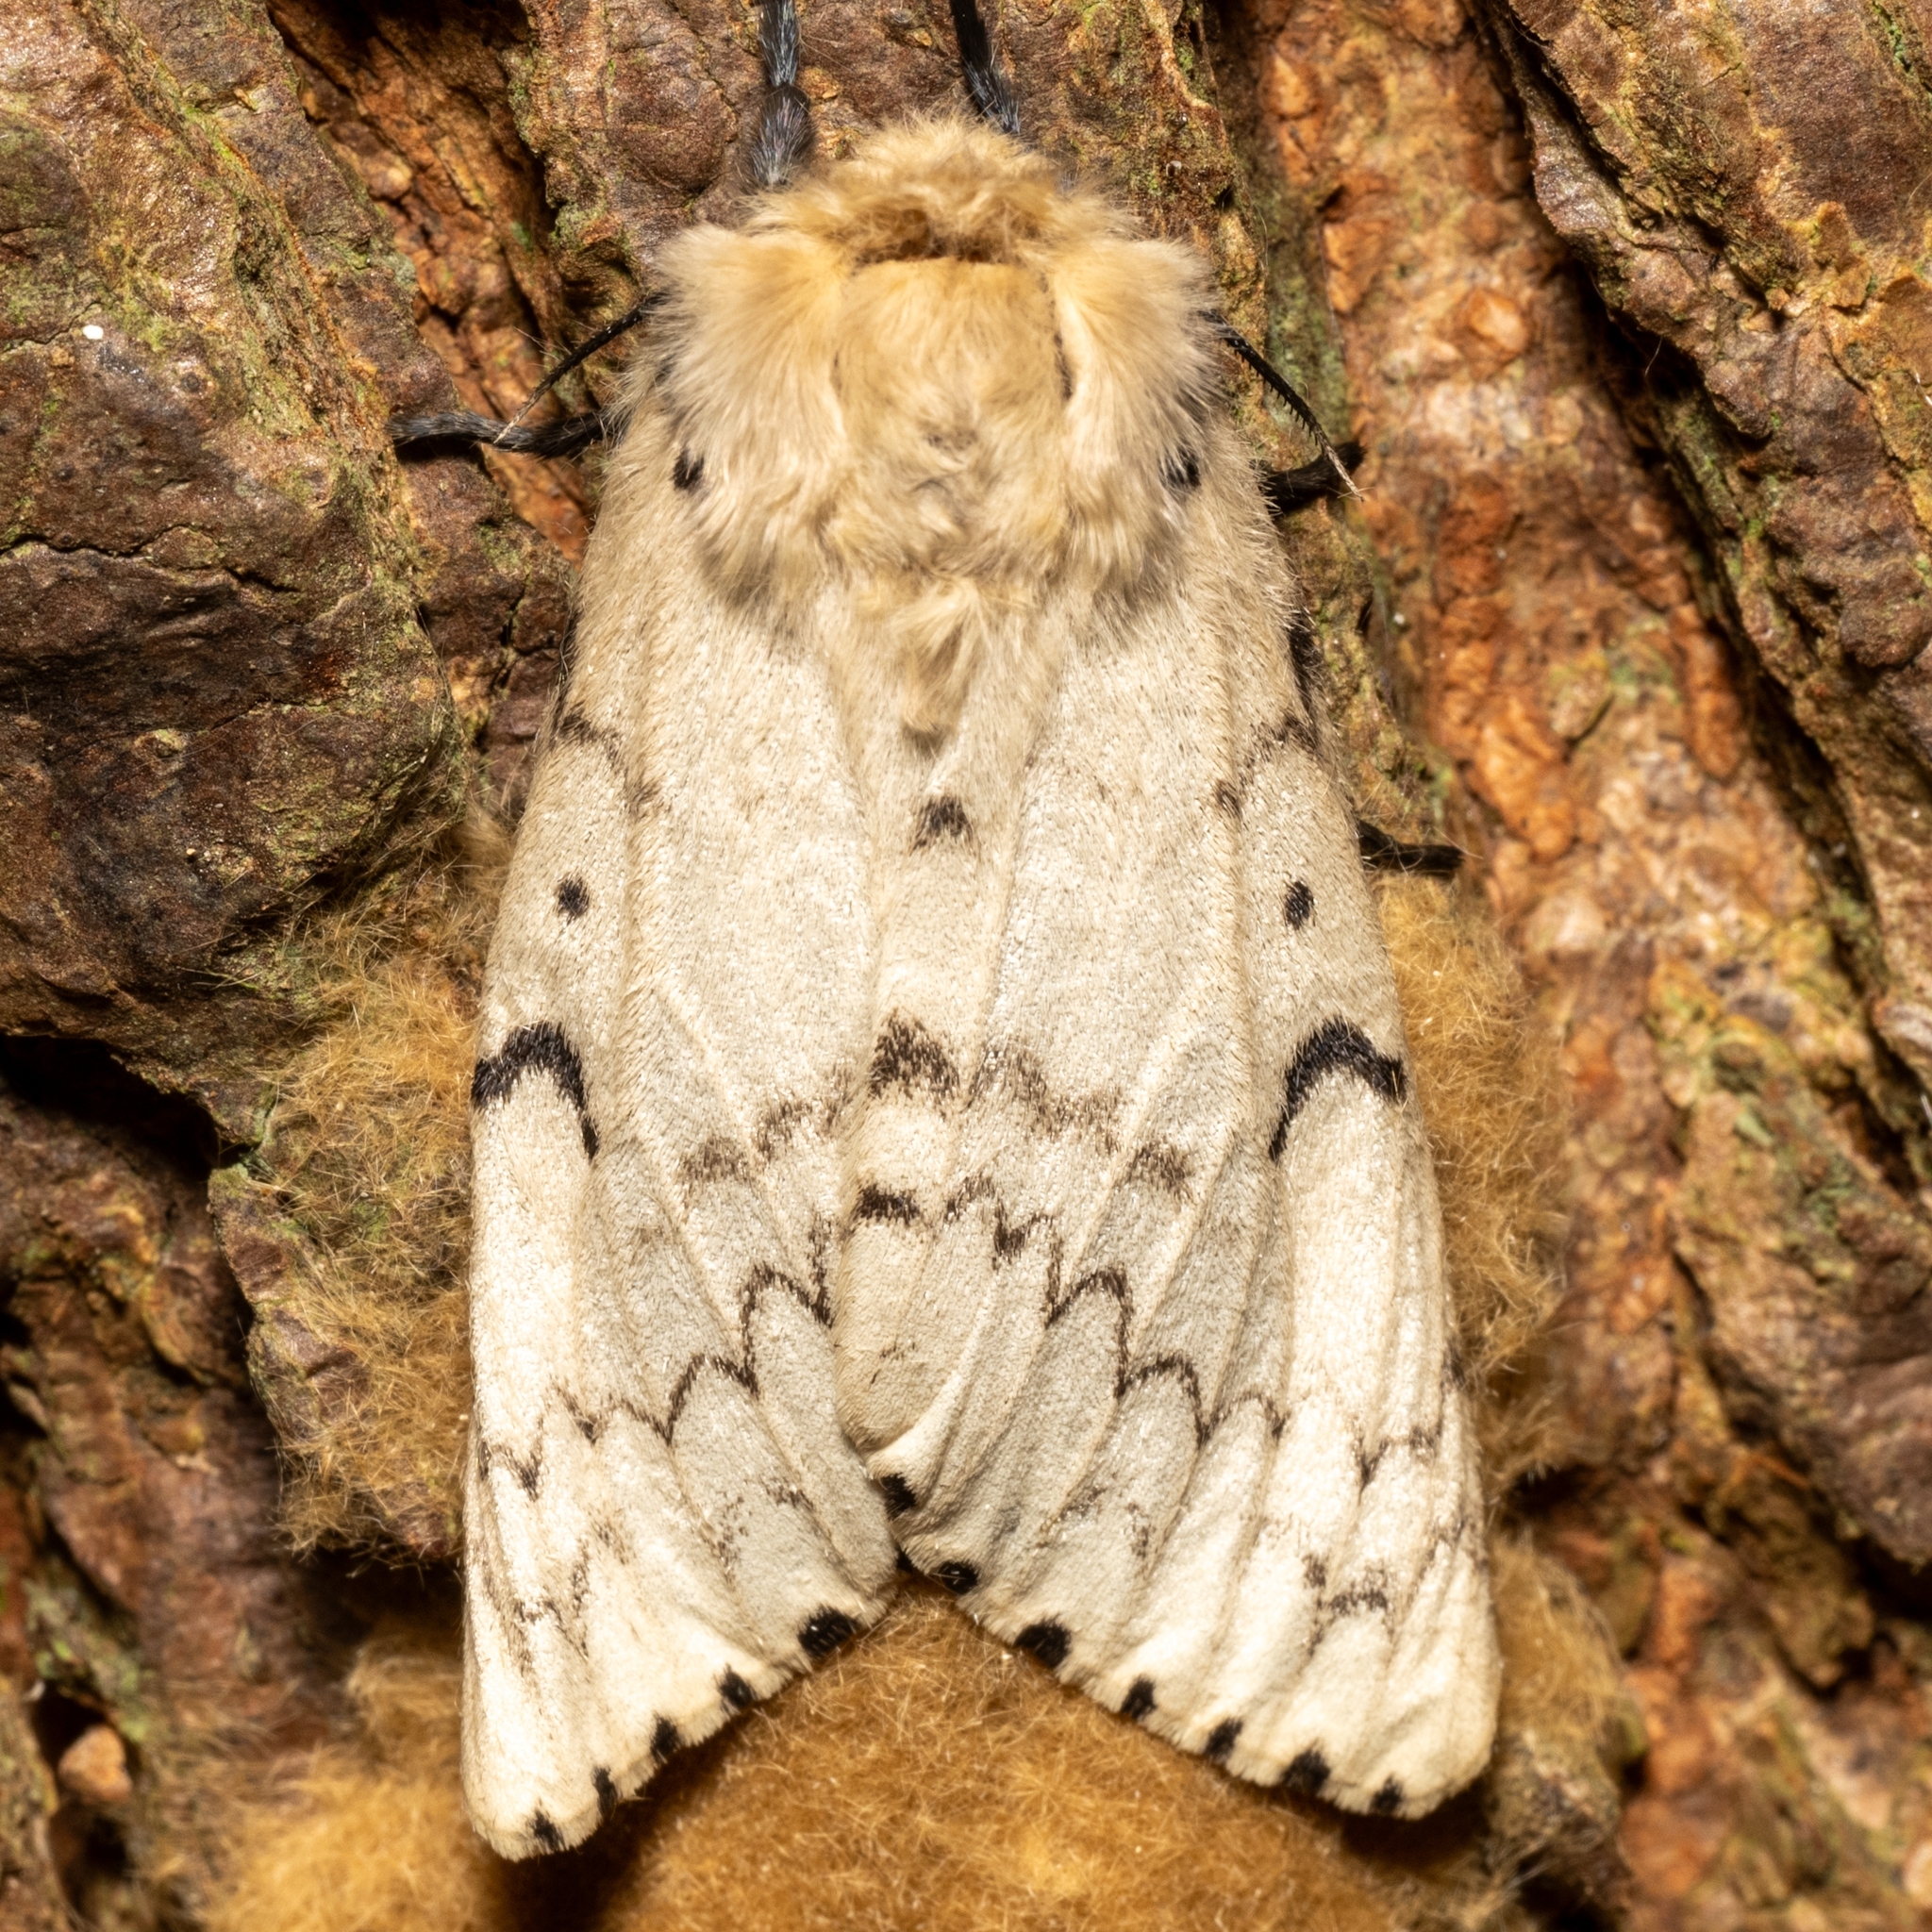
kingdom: Animalia
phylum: Arthropoda
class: Insecta
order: Lepidoptera
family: Erebidae
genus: Lymantria
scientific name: Lymantria dispar
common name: Gypsy moth
